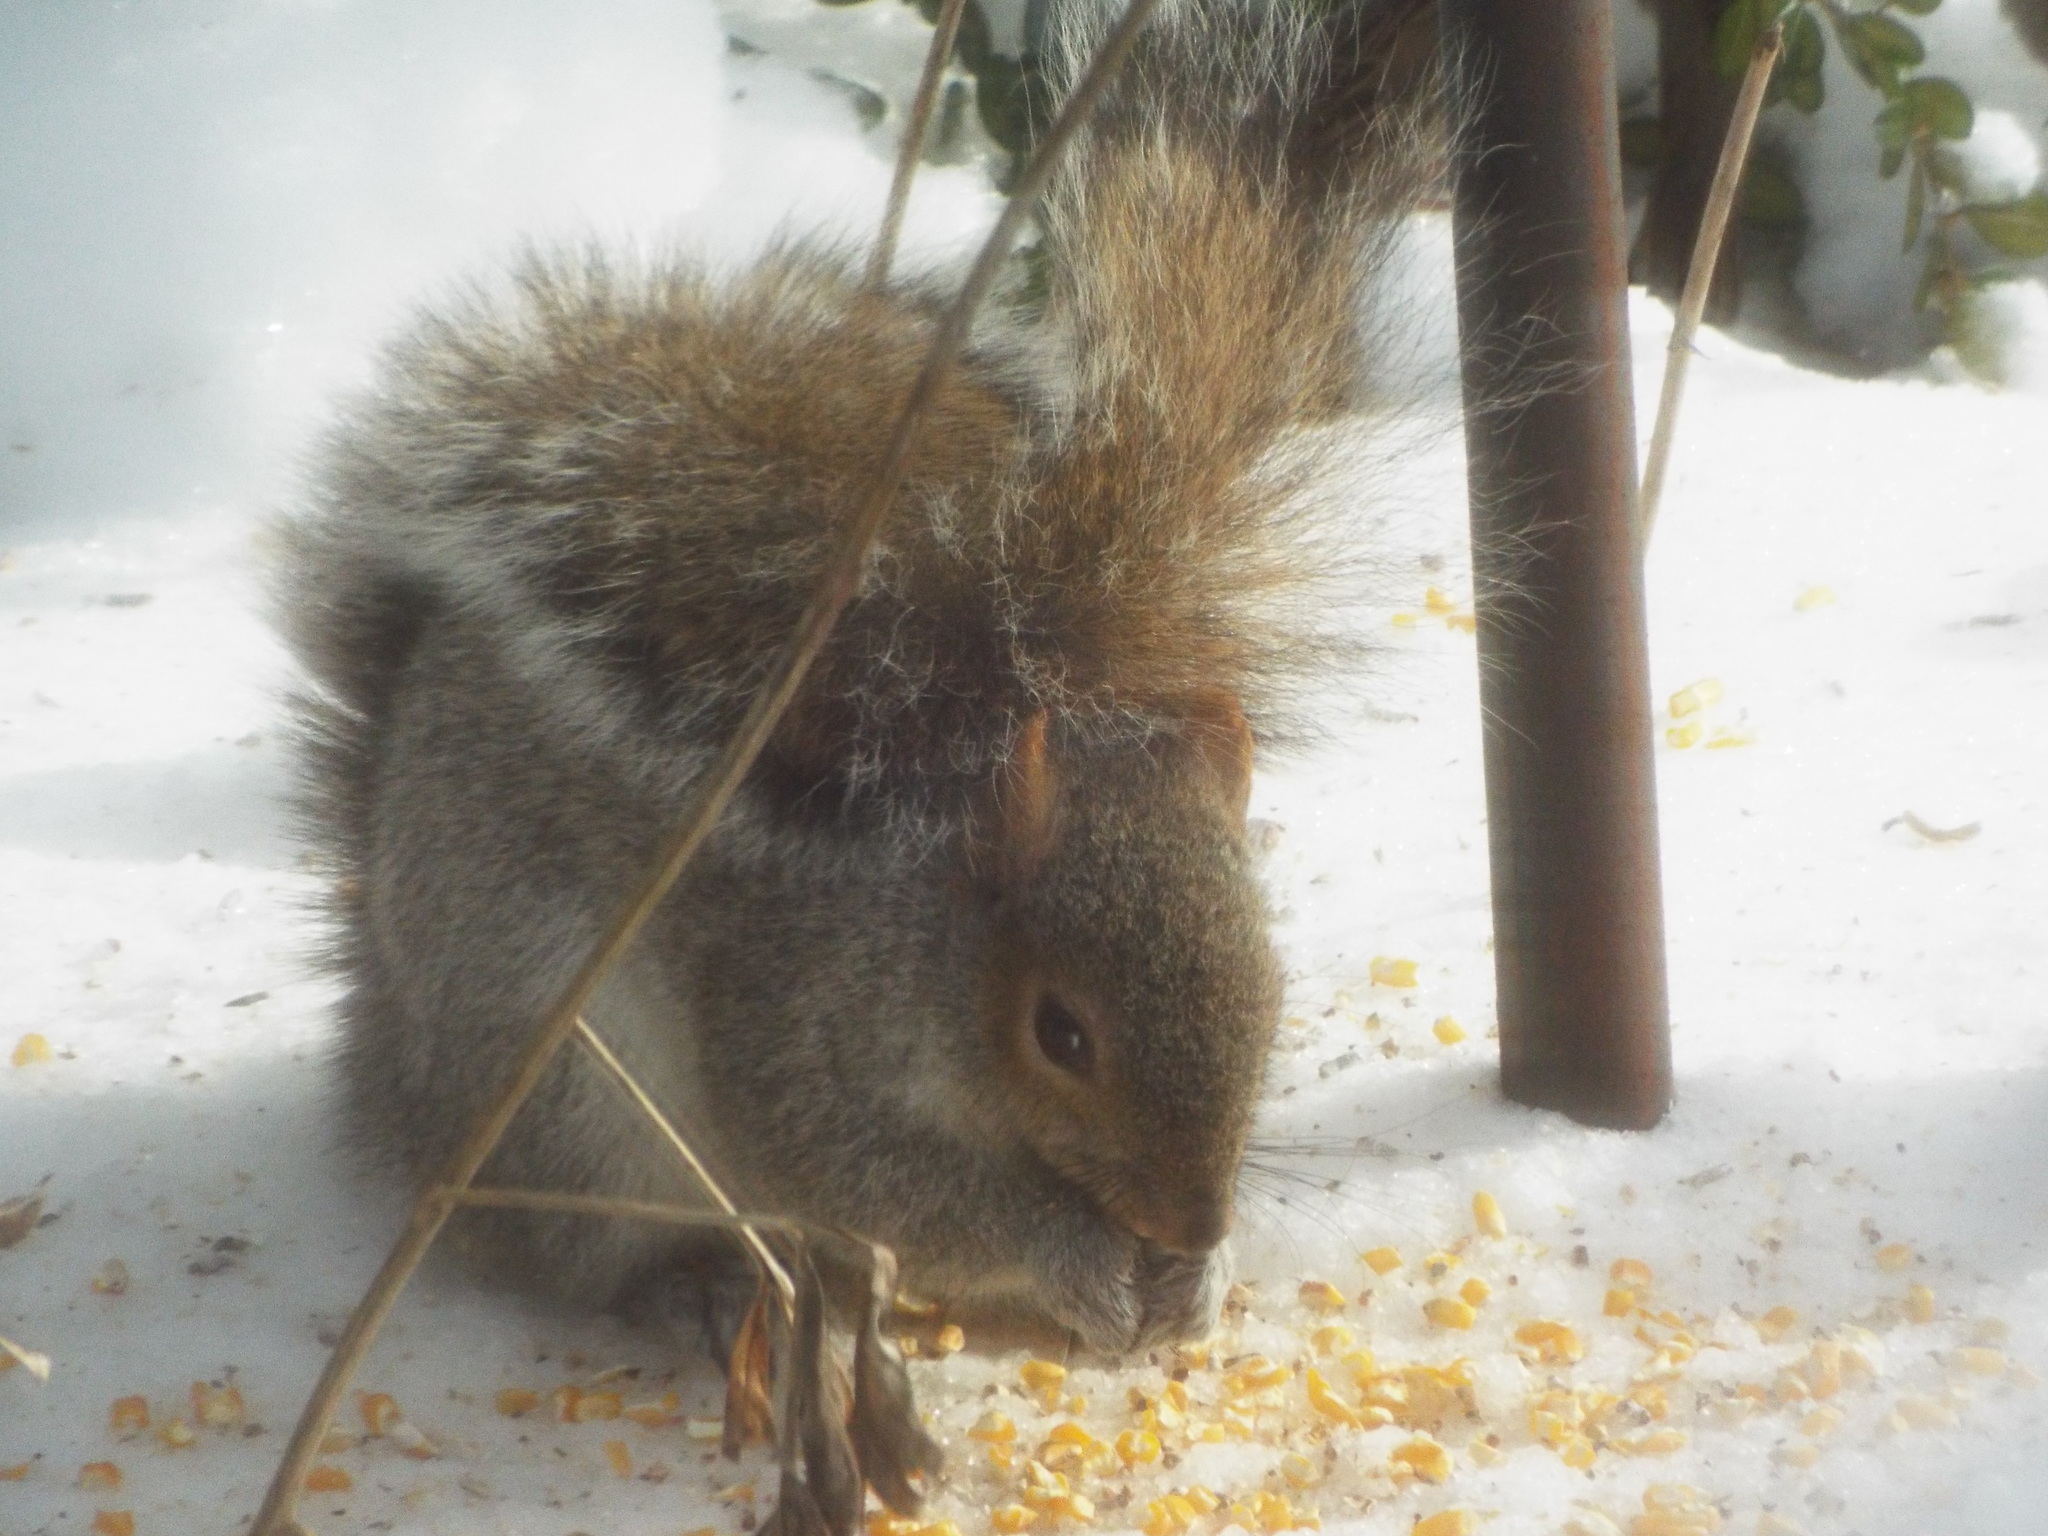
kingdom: Animalia
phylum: Chordata
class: Mammalia
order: Rodentia
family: Sciuridae
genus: Sciurus
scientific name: Sciurus carolinensis
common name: Eastern gray squirrel
